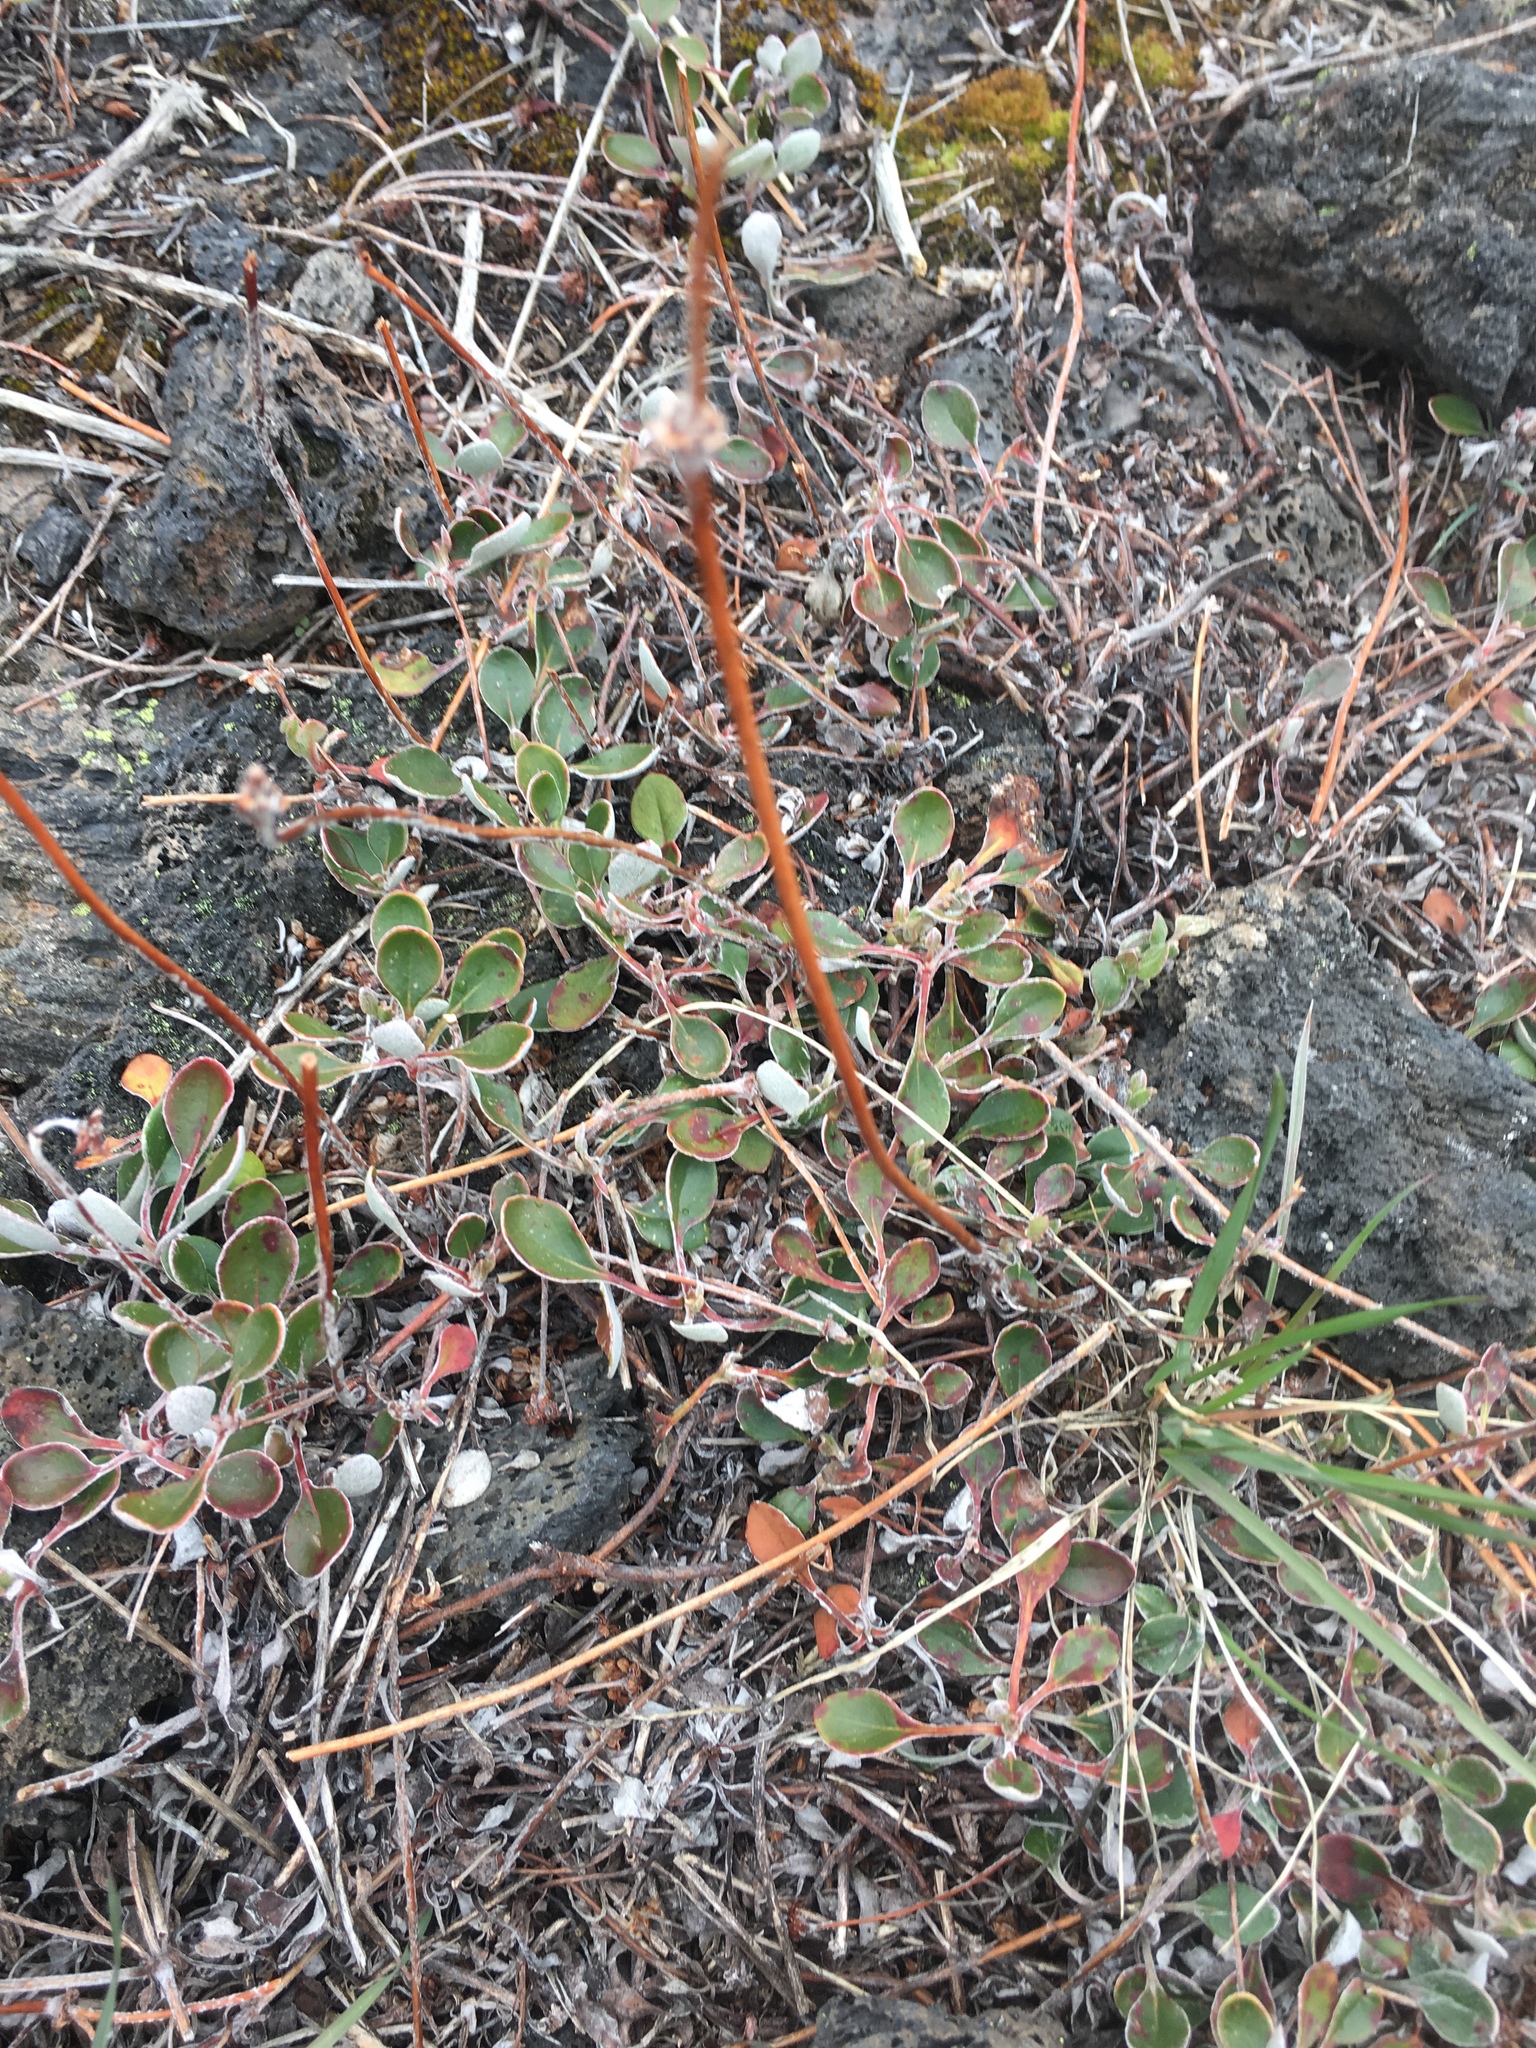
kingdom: Plantae
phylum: Tracheophyta
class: Magnoliopsida
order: Caryophyllales
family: Polygonaceae
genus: Eriogonum
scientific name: Eriogonum umbellatum
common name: Sulfur-buckwheat
